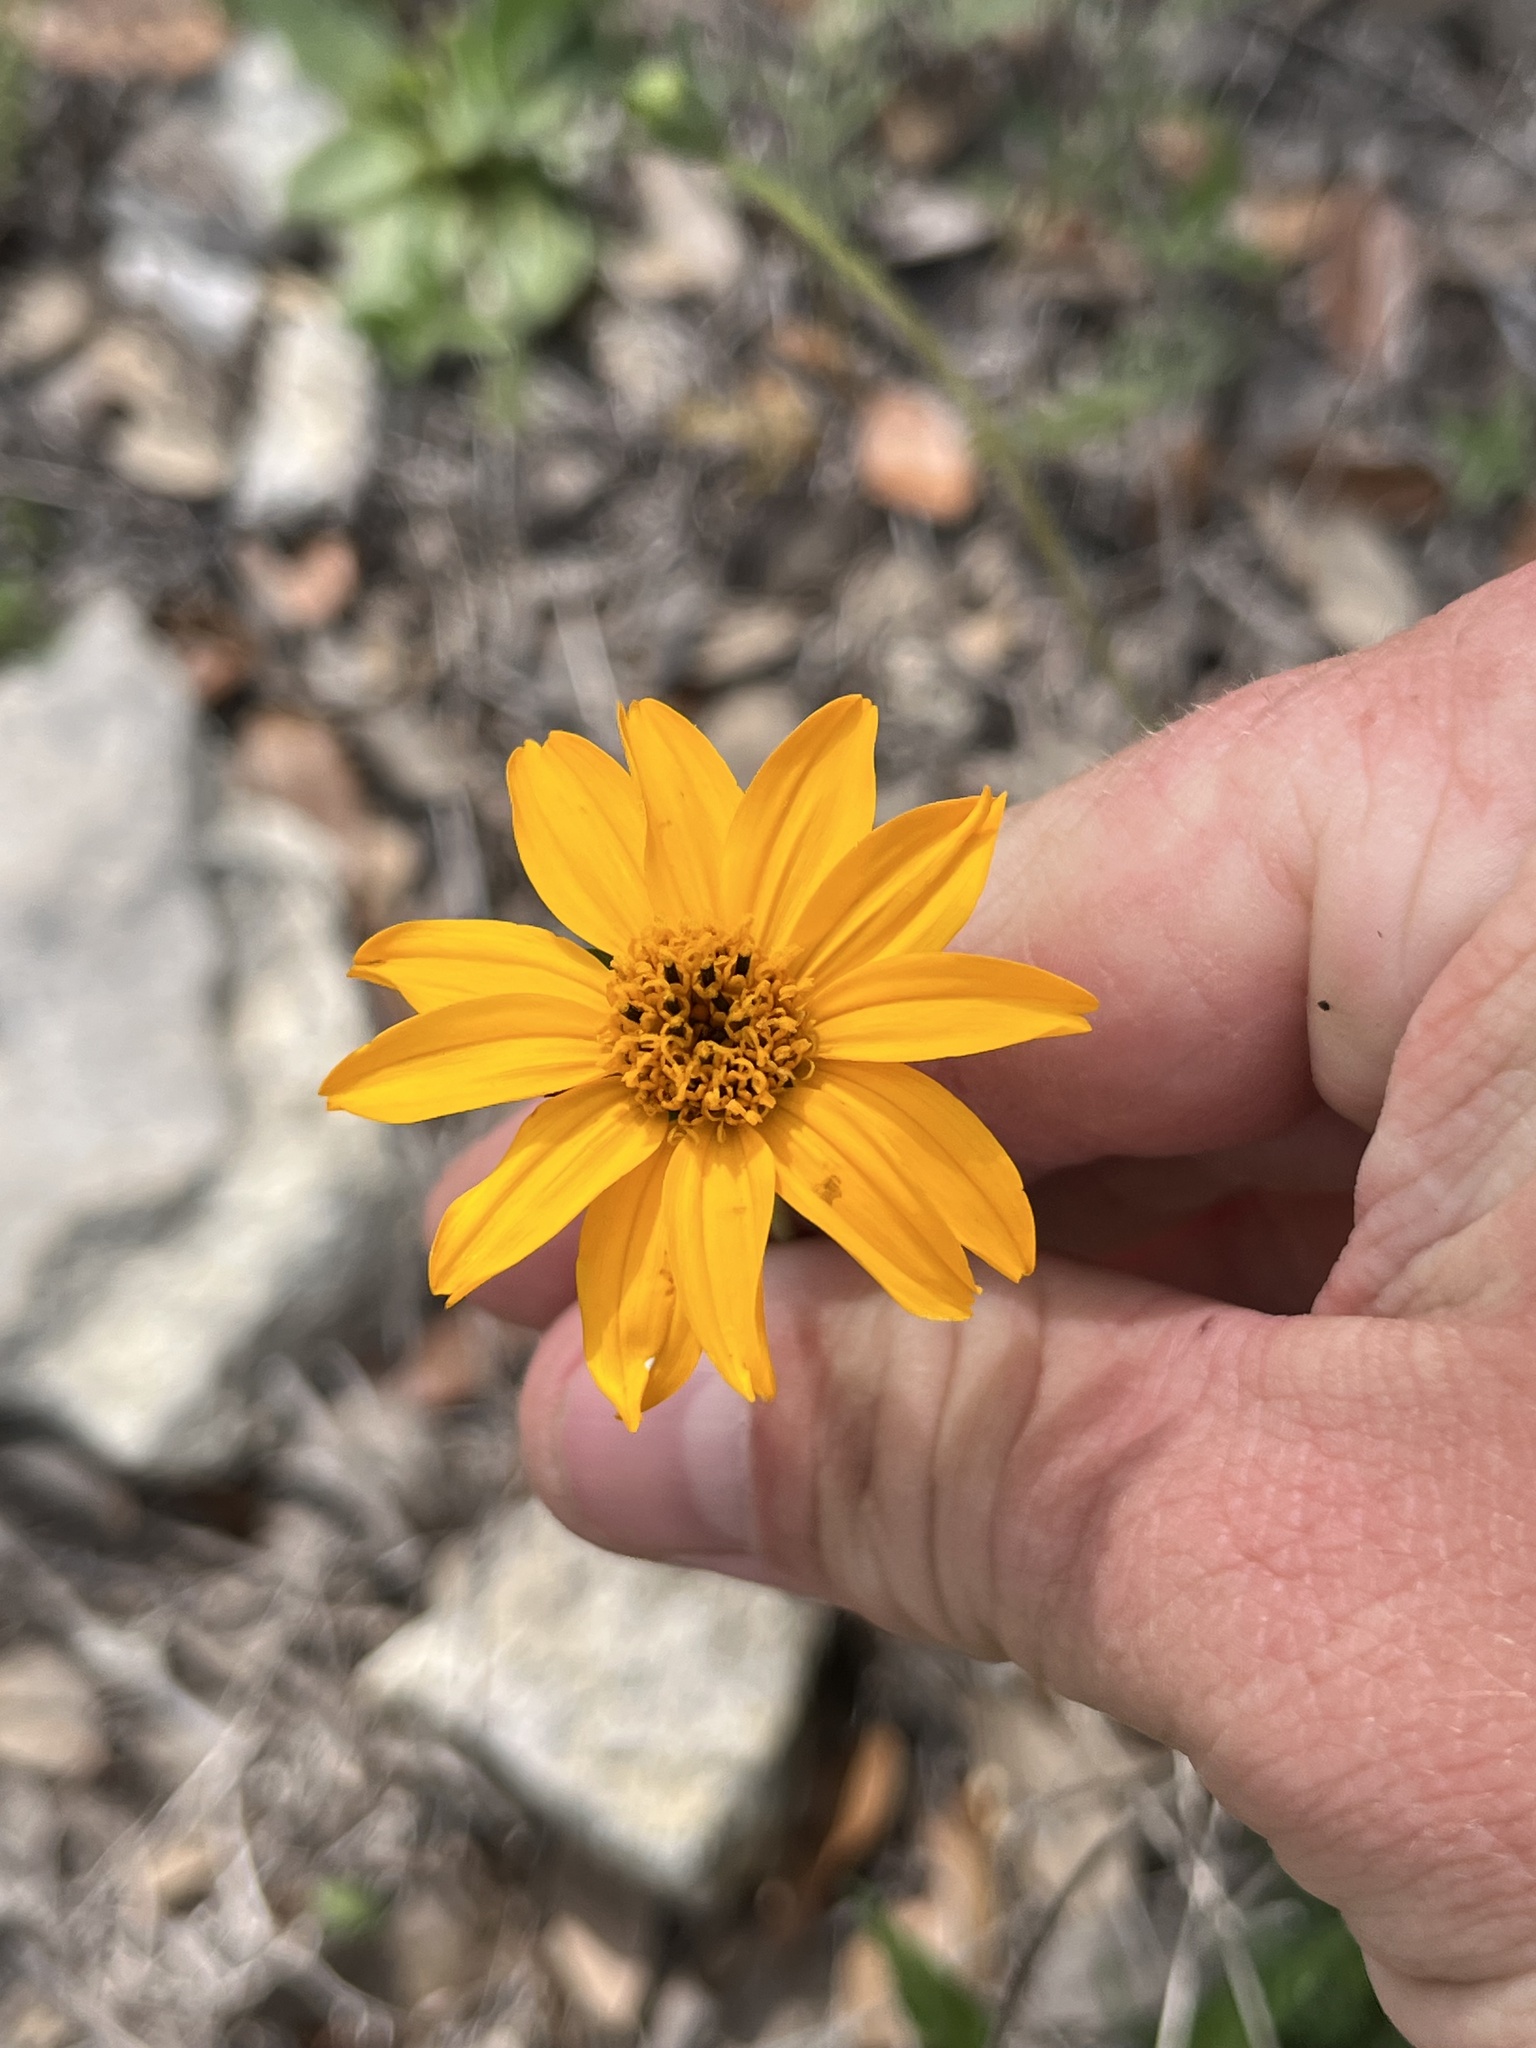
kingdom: Plantae
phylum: Tracheophyta
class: Magnoliopsida
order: Asterales
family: Asteraceae
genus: Wedelia
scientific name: Wedelia acapulcensis
